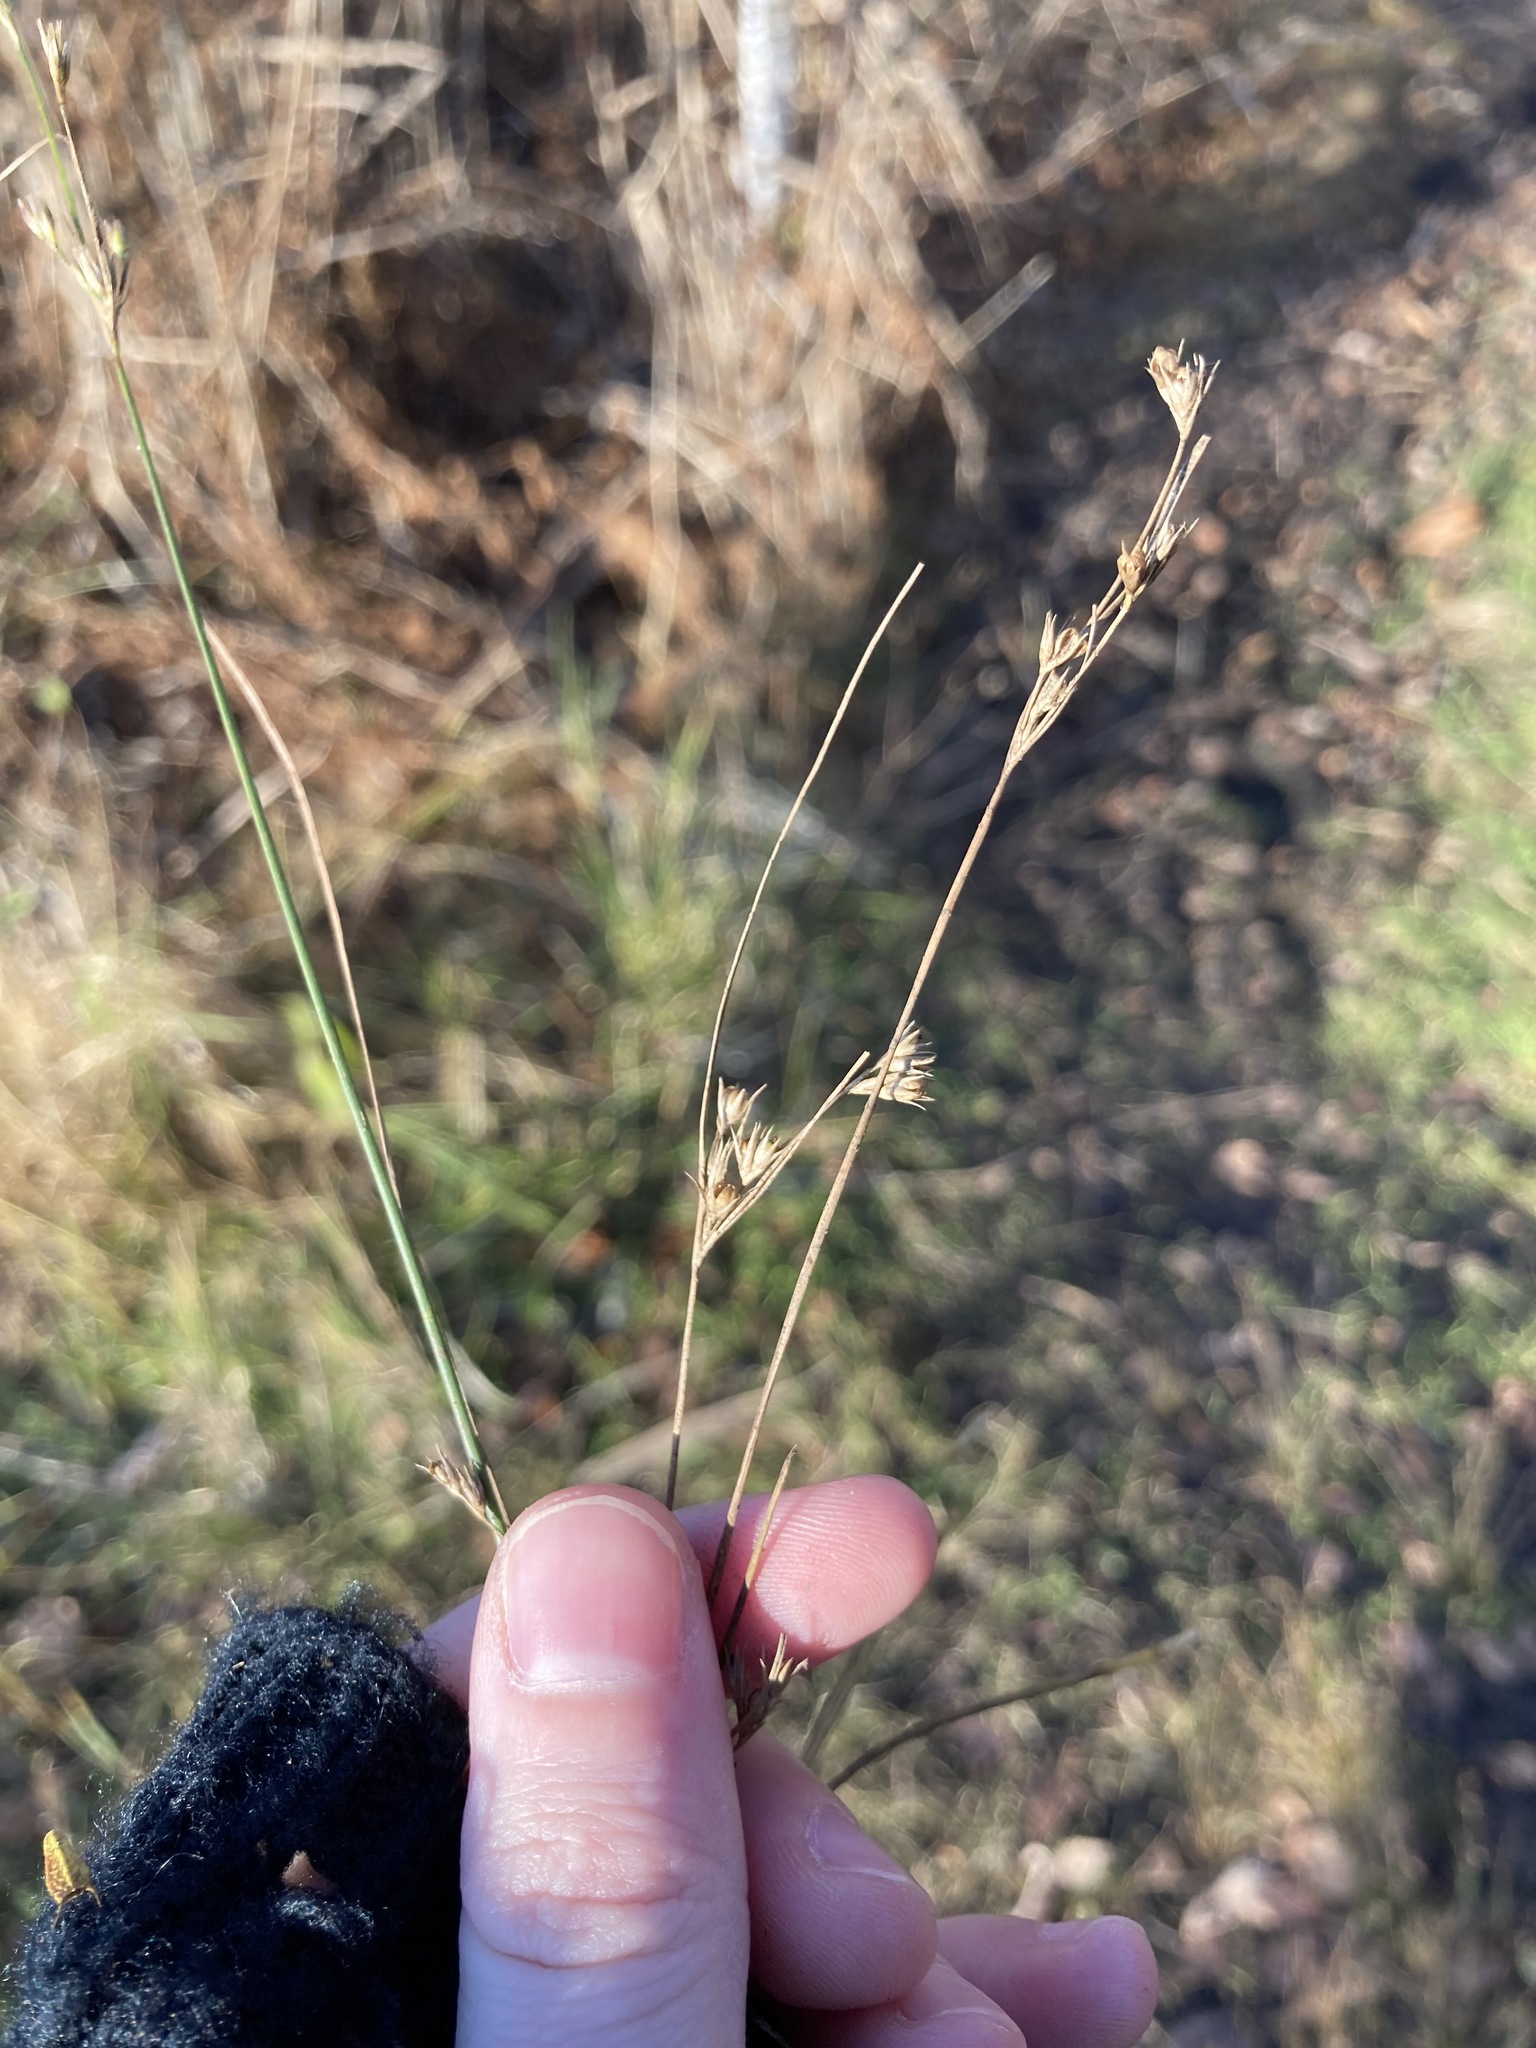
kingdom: Plantae
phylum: Tracheophyta
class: Liliopsida
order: Poales
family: Juncaceae
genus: Juncus
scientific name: Juncus tenuis
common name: Slender rush
